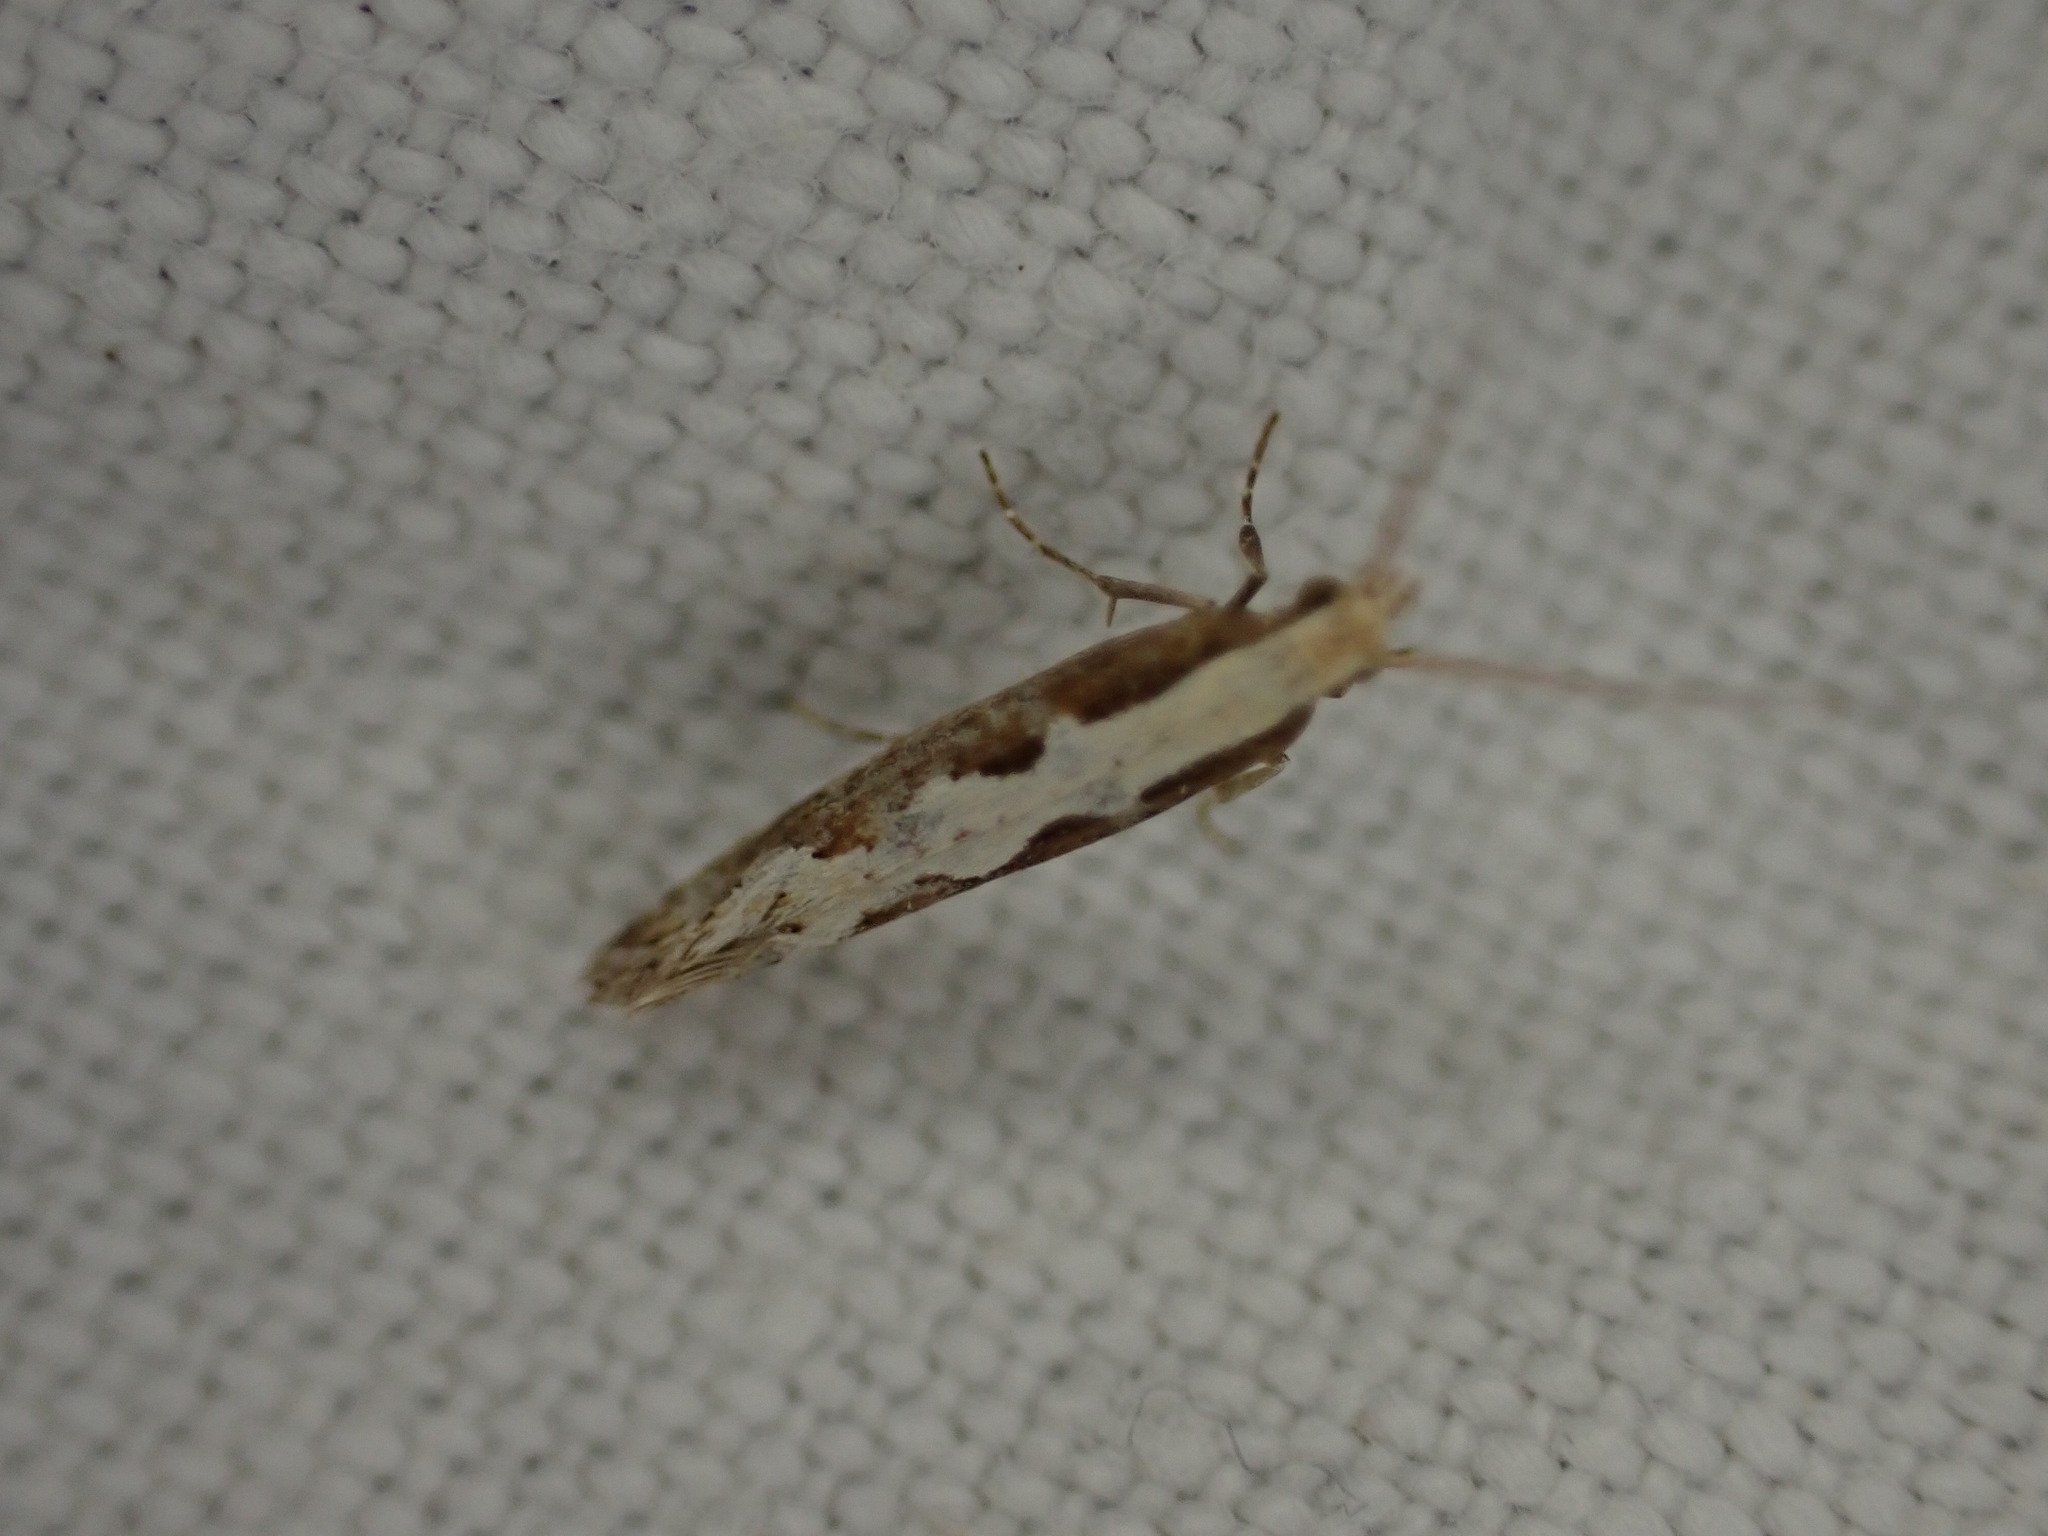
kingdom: Animalia
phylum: Arthropoda
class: Insecta
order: Lepidoptera
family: Plutellidae
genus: Plutella
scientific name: Plutella xylostella
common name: Diamond-back moth
